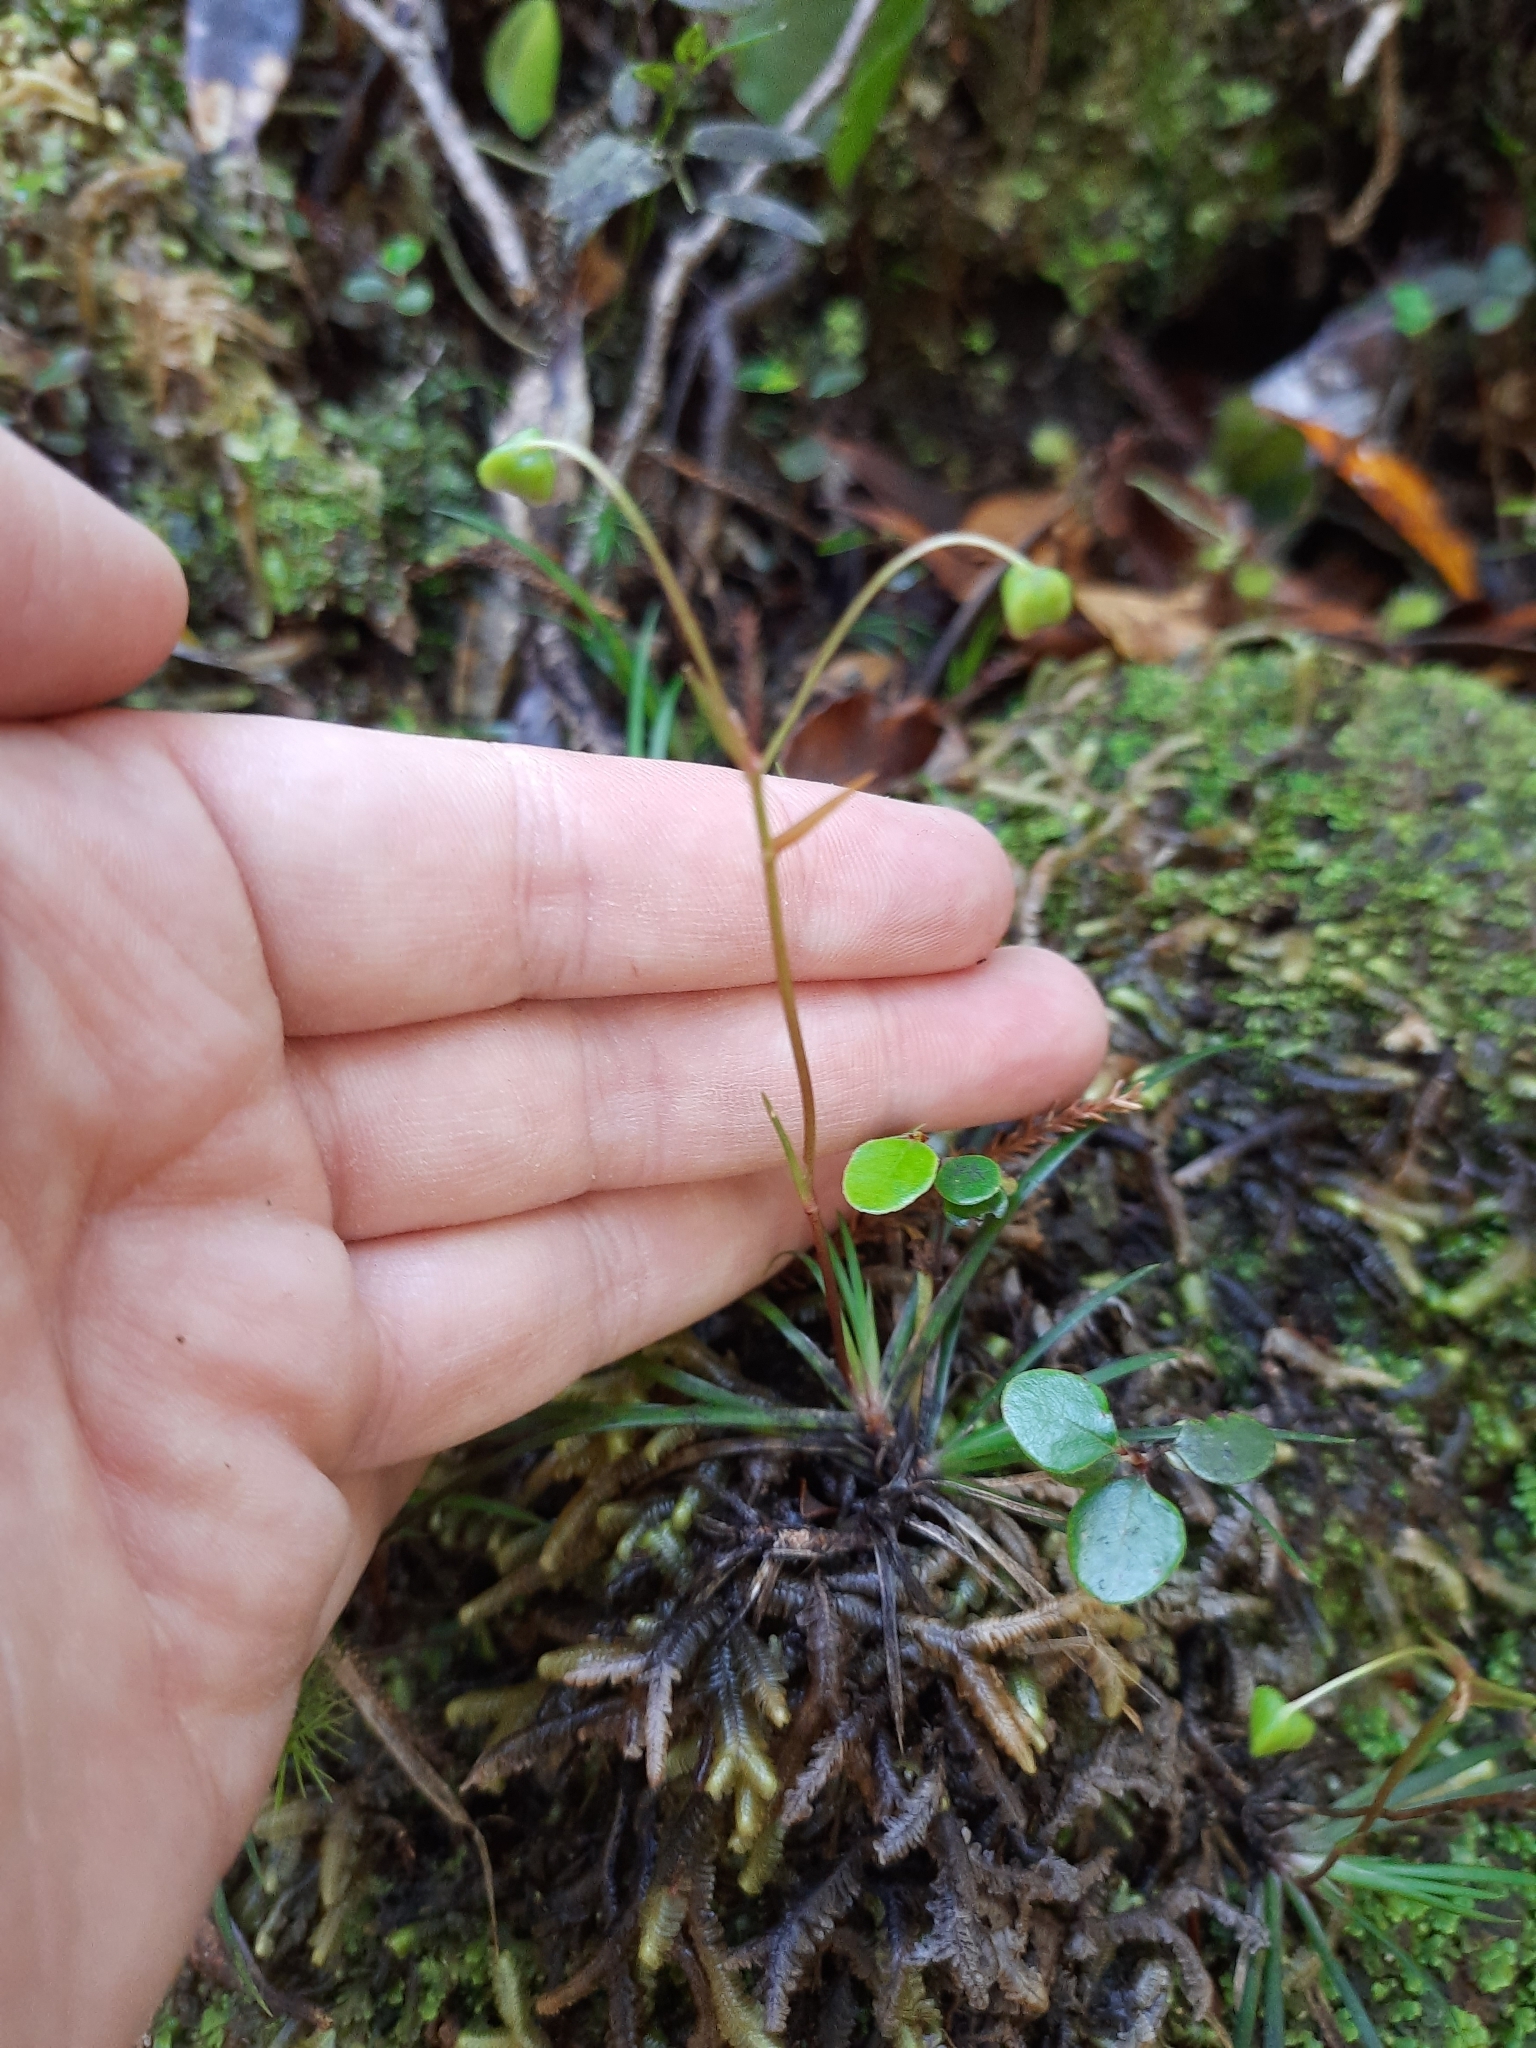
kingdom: Plantae
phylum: Tracheophyta
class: Liliopsida
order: Asparagales
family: Iridaceae
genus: Libertia
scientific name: Libertia micrantha
